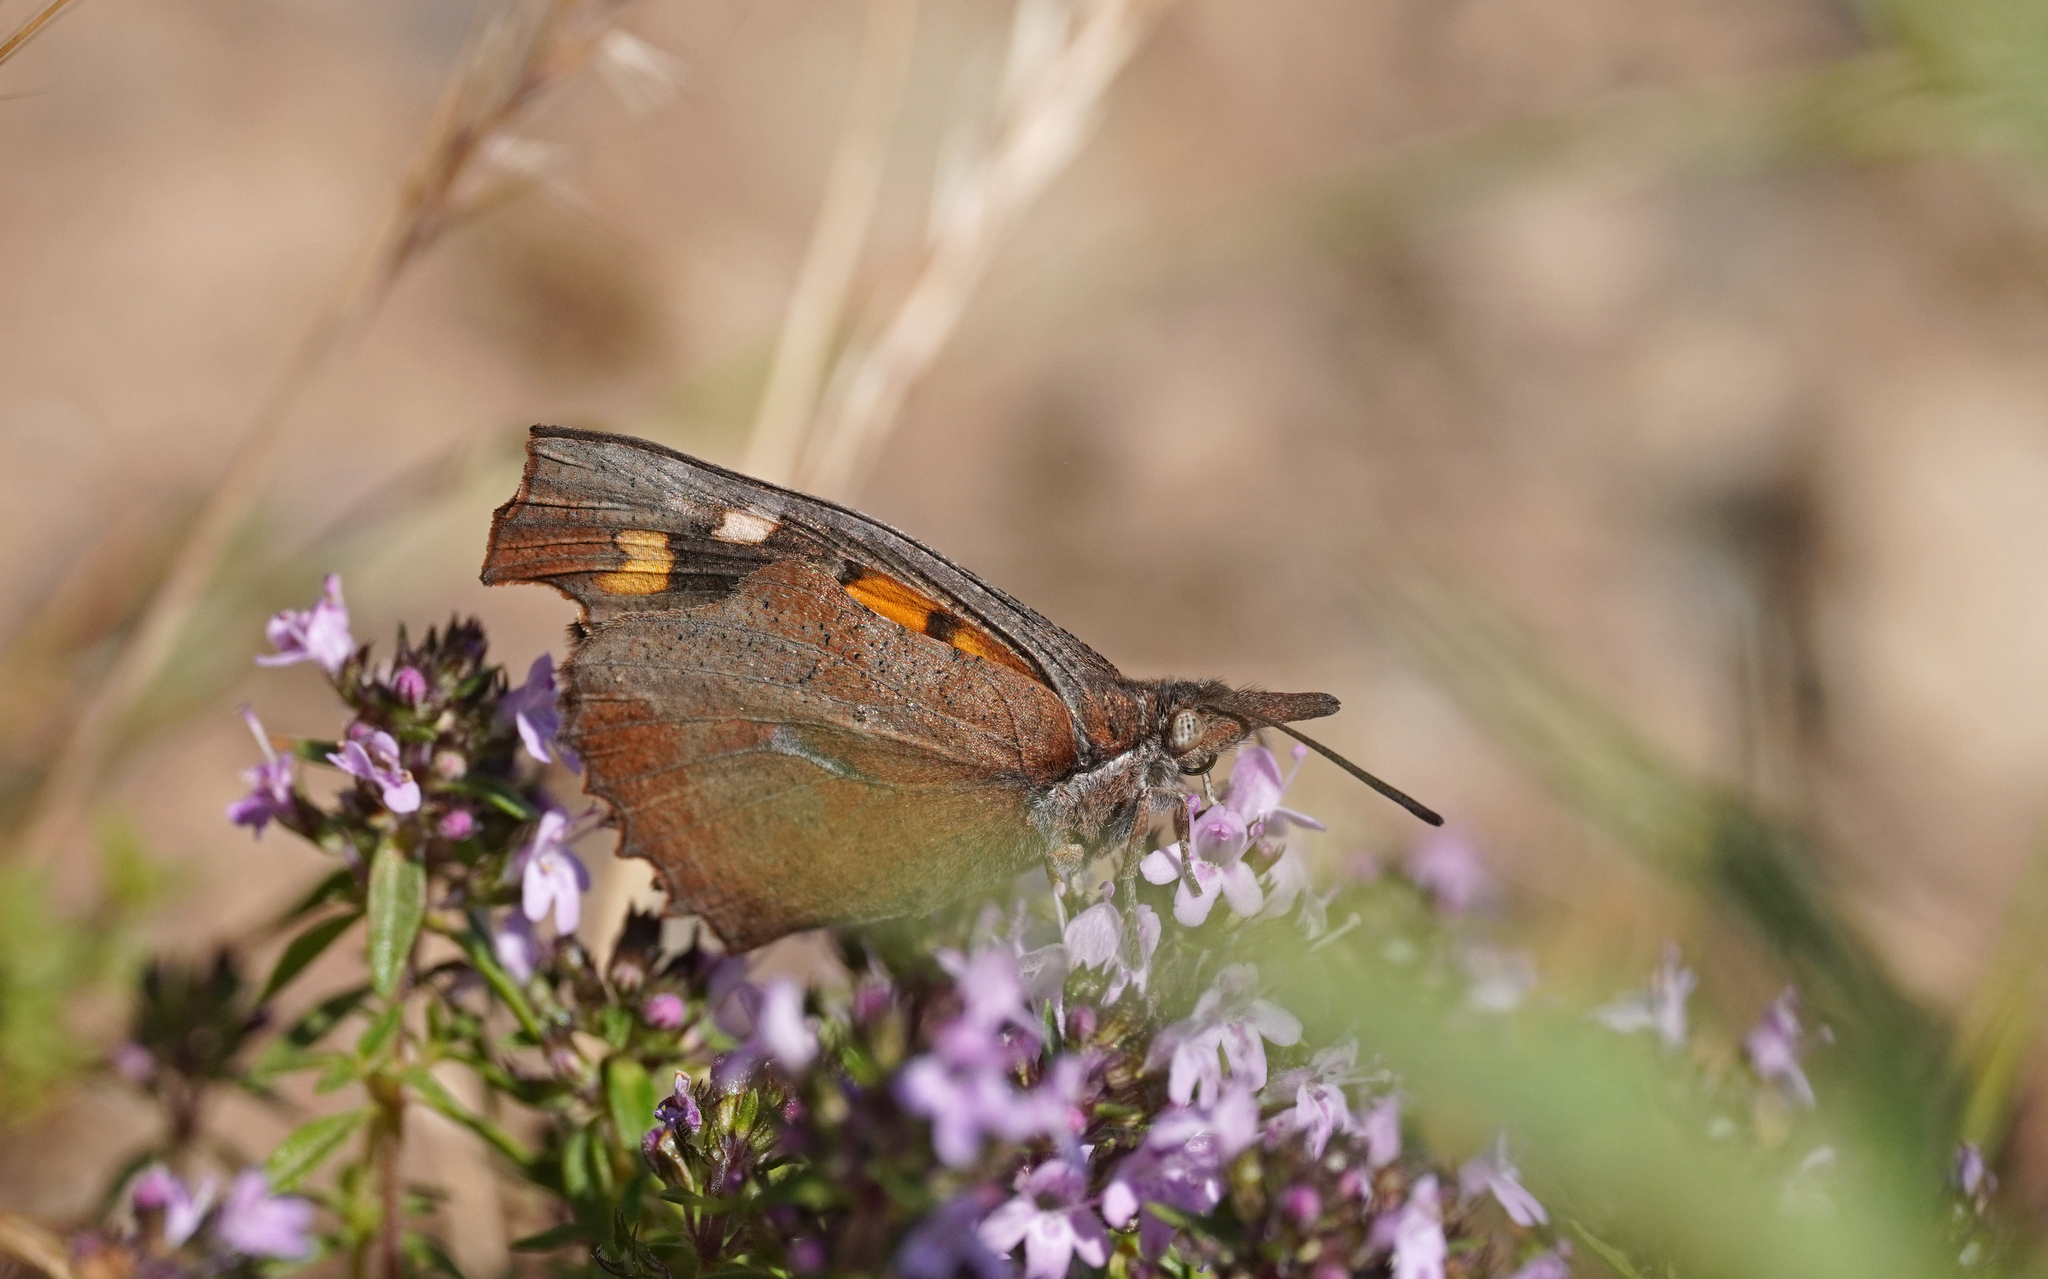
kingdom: Animalia
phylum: Arthropoda
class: Insecta
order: Lepidoptera
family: Nymphalidae
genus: Libythea
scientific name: Libythea celtis
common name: Nettle-tree butterfly
